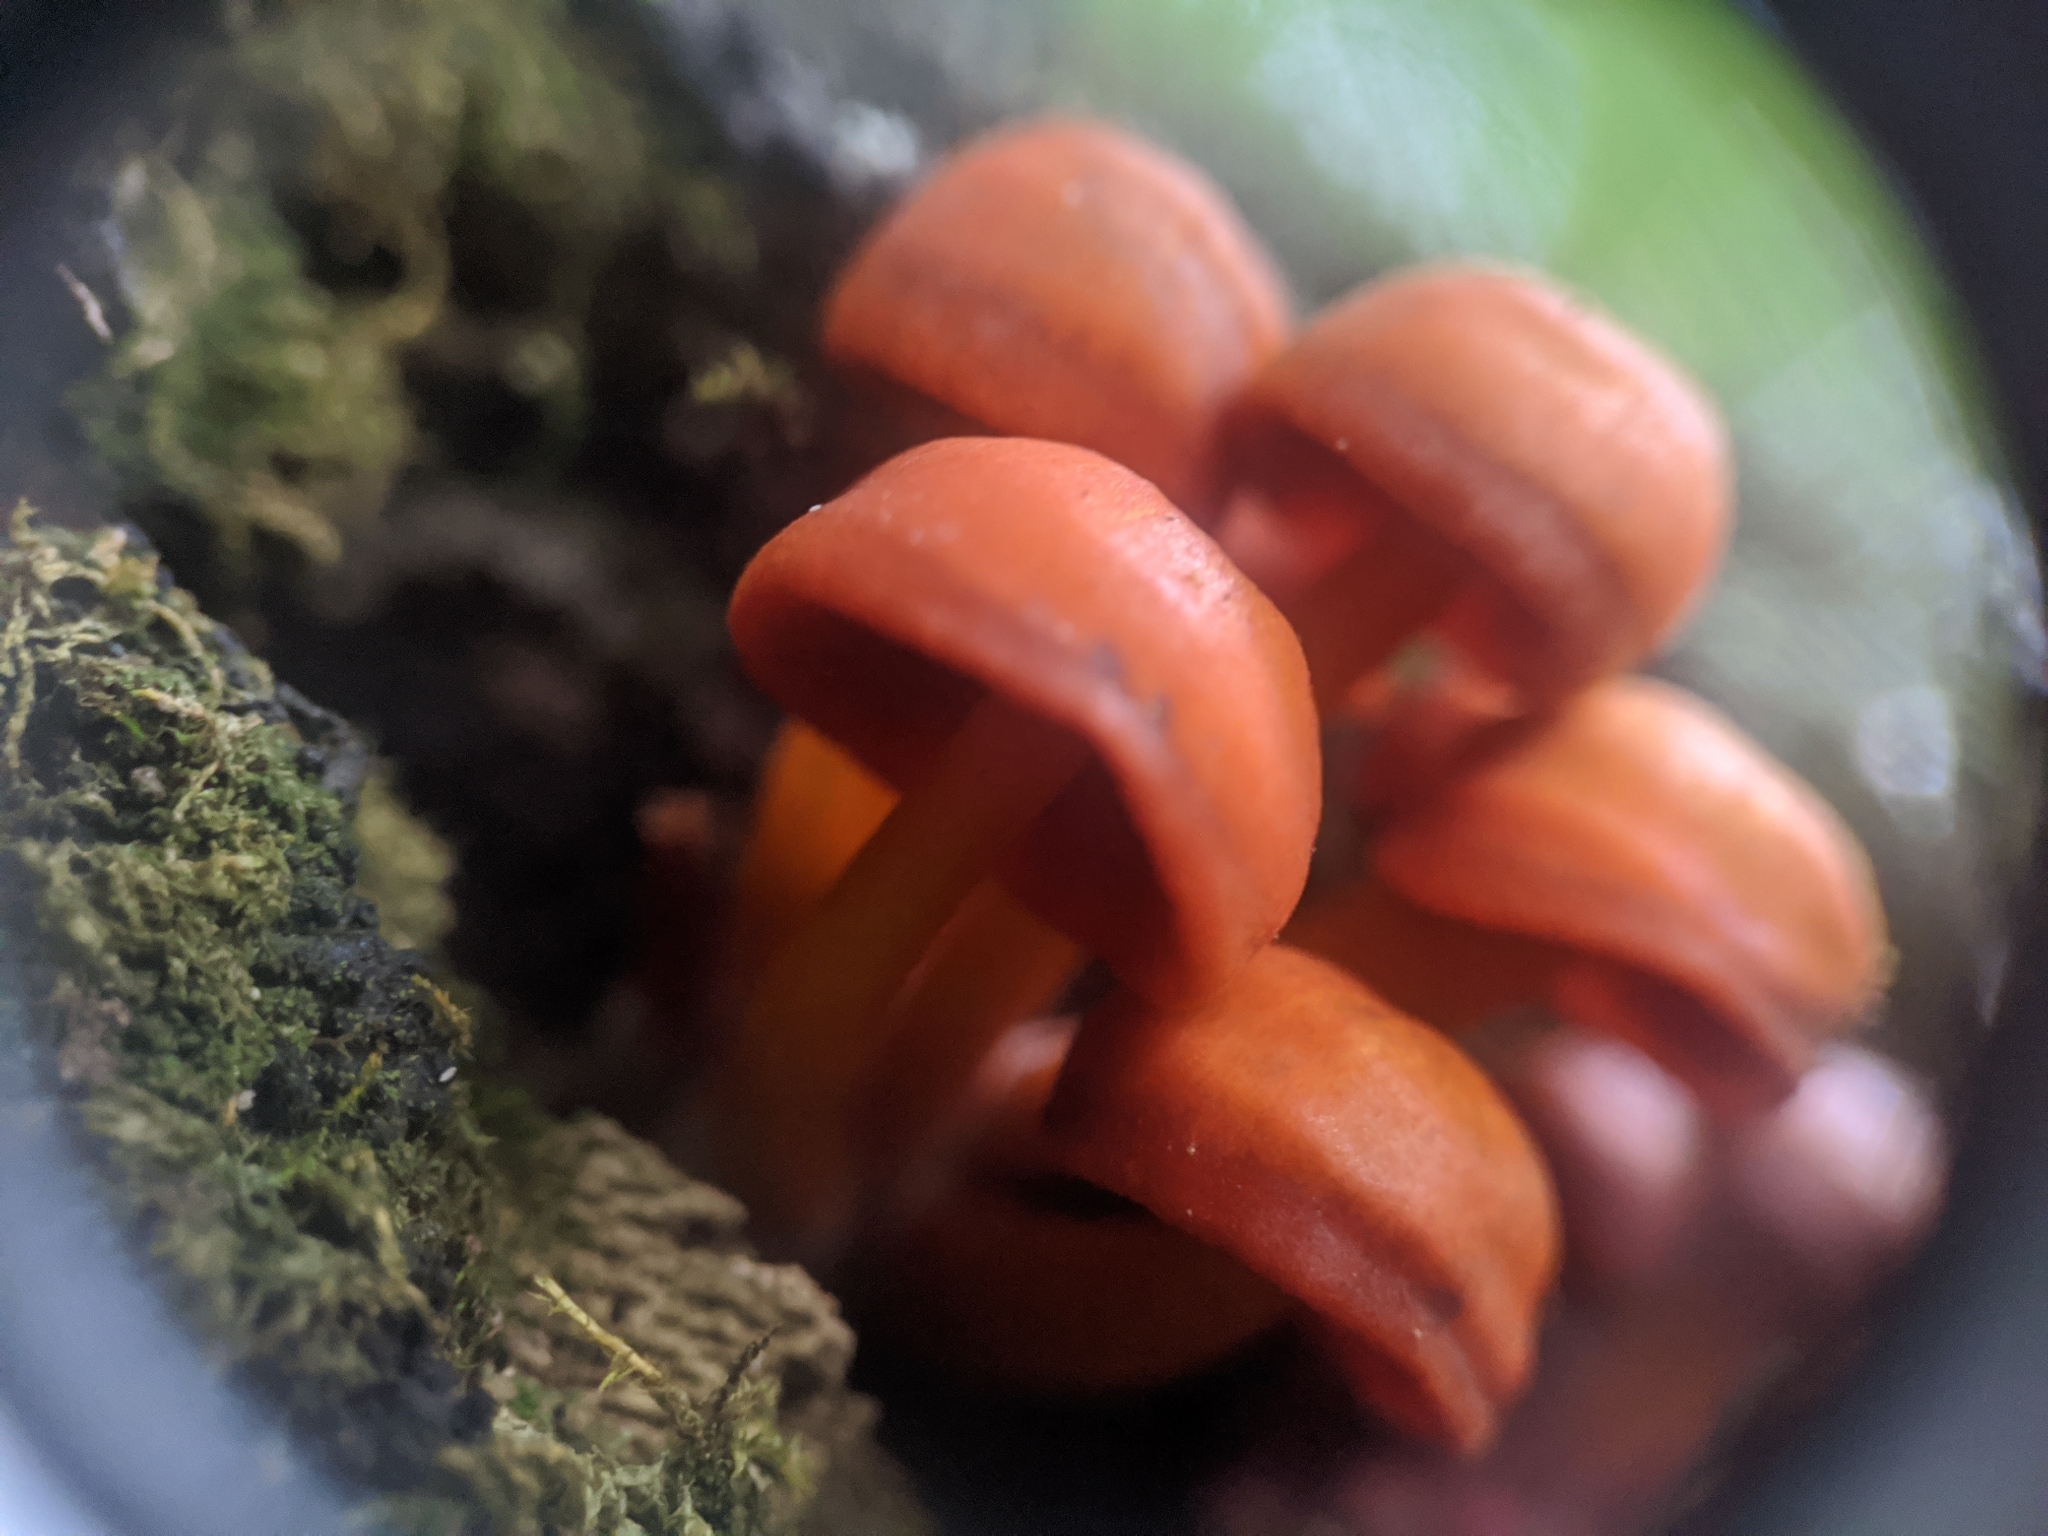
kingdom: Fungi
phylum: Basidiomycota
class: Agaricomycetes
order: Agaricales
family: Mycenaceae
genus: Mycena
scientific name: Mycena leaiana
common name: Orange mycena
